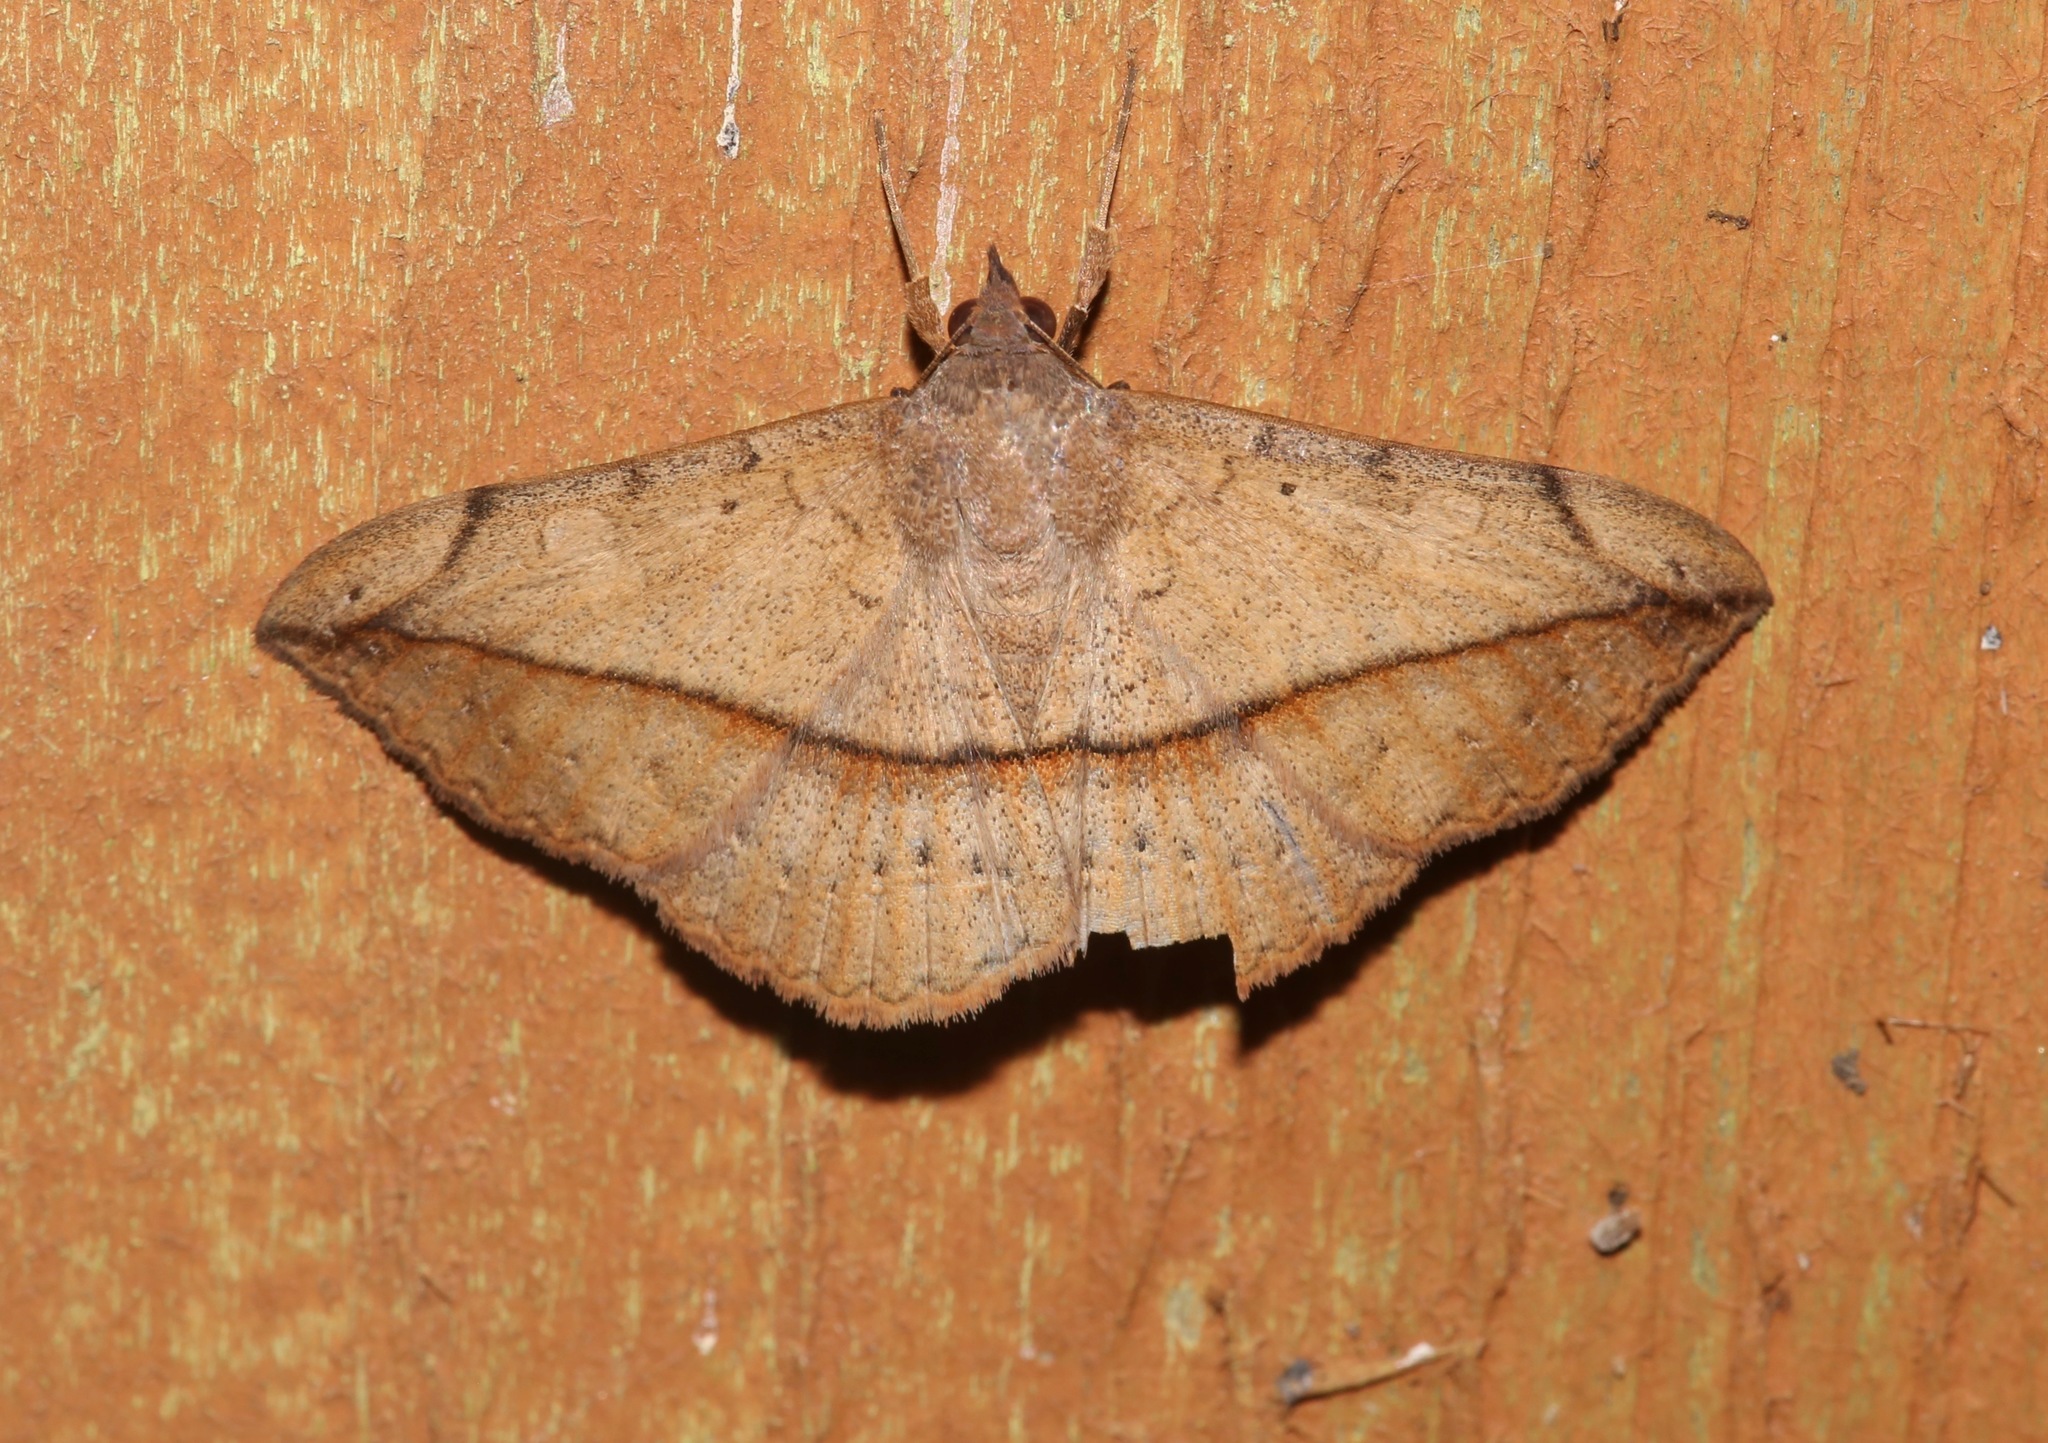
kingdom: Animalia
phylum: Arthropoda
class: Insecta
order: Lepidoptera
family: Erebidae
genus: Anticarsia
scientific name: Anticarsia gemmatalis
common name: Cutworm moth
